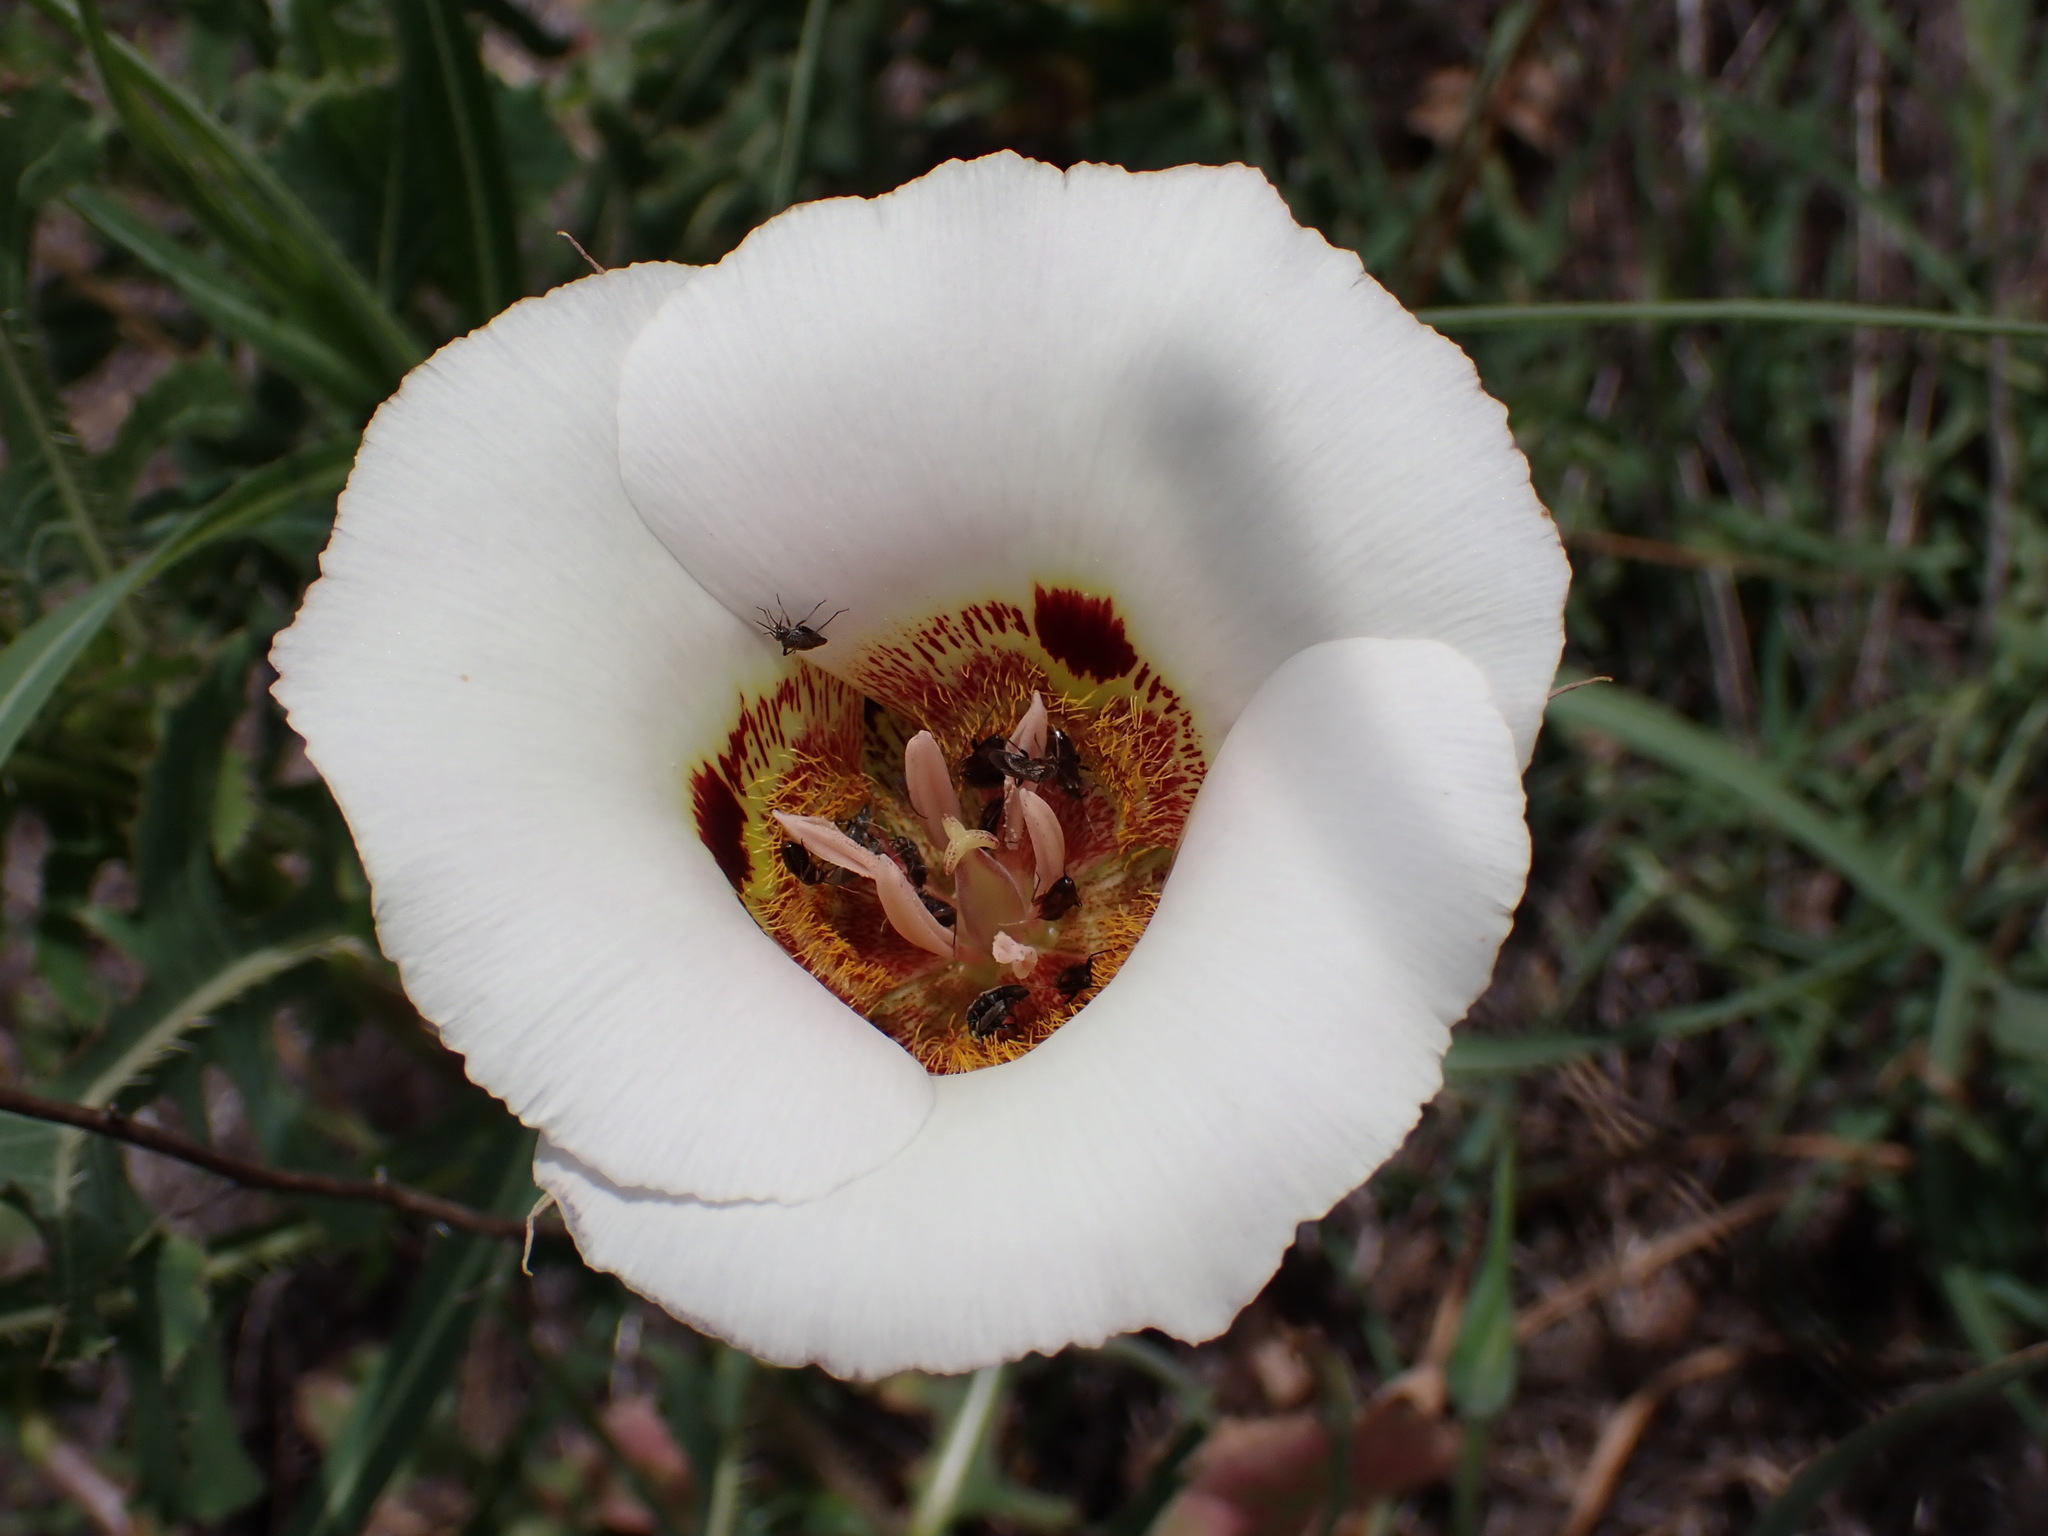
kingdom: Plantae
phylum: Tracheophyta
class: Liliopsida
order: Liliales
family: Liliaceae
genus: Calochortus
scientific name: Calochortus vestae
